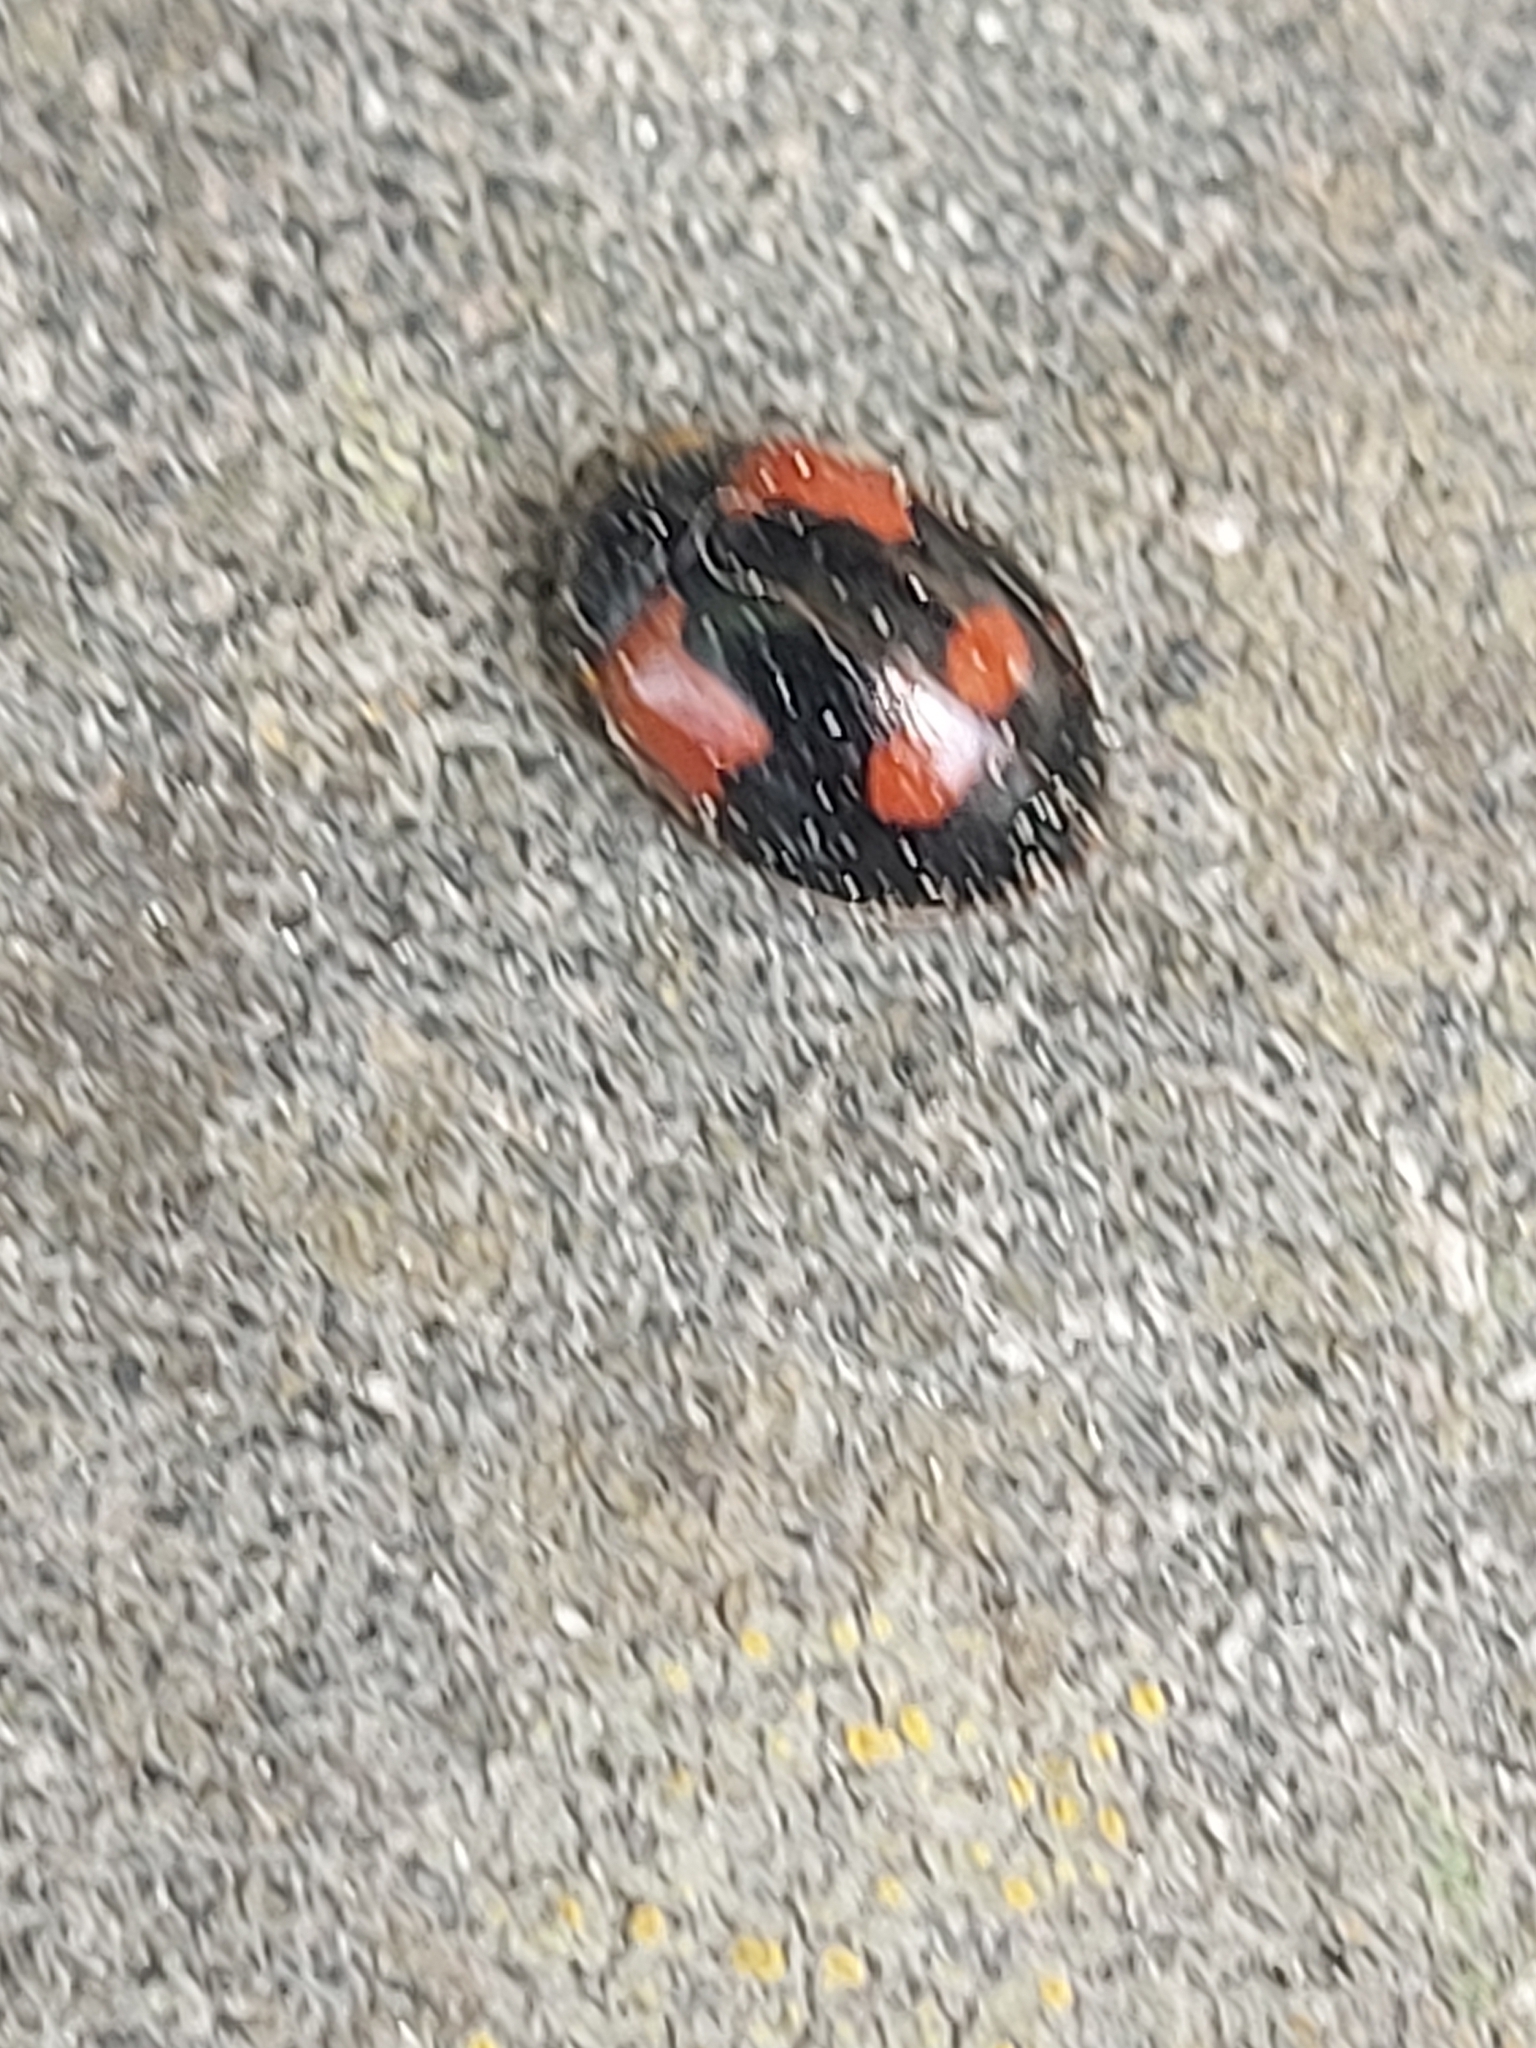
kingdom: Animalia
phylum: Arthropoda
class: Insecta
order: Coleoptera
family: Coccinellidae
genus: Adalia
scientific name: Adalia bipunctata
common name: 2-spot ladybird
